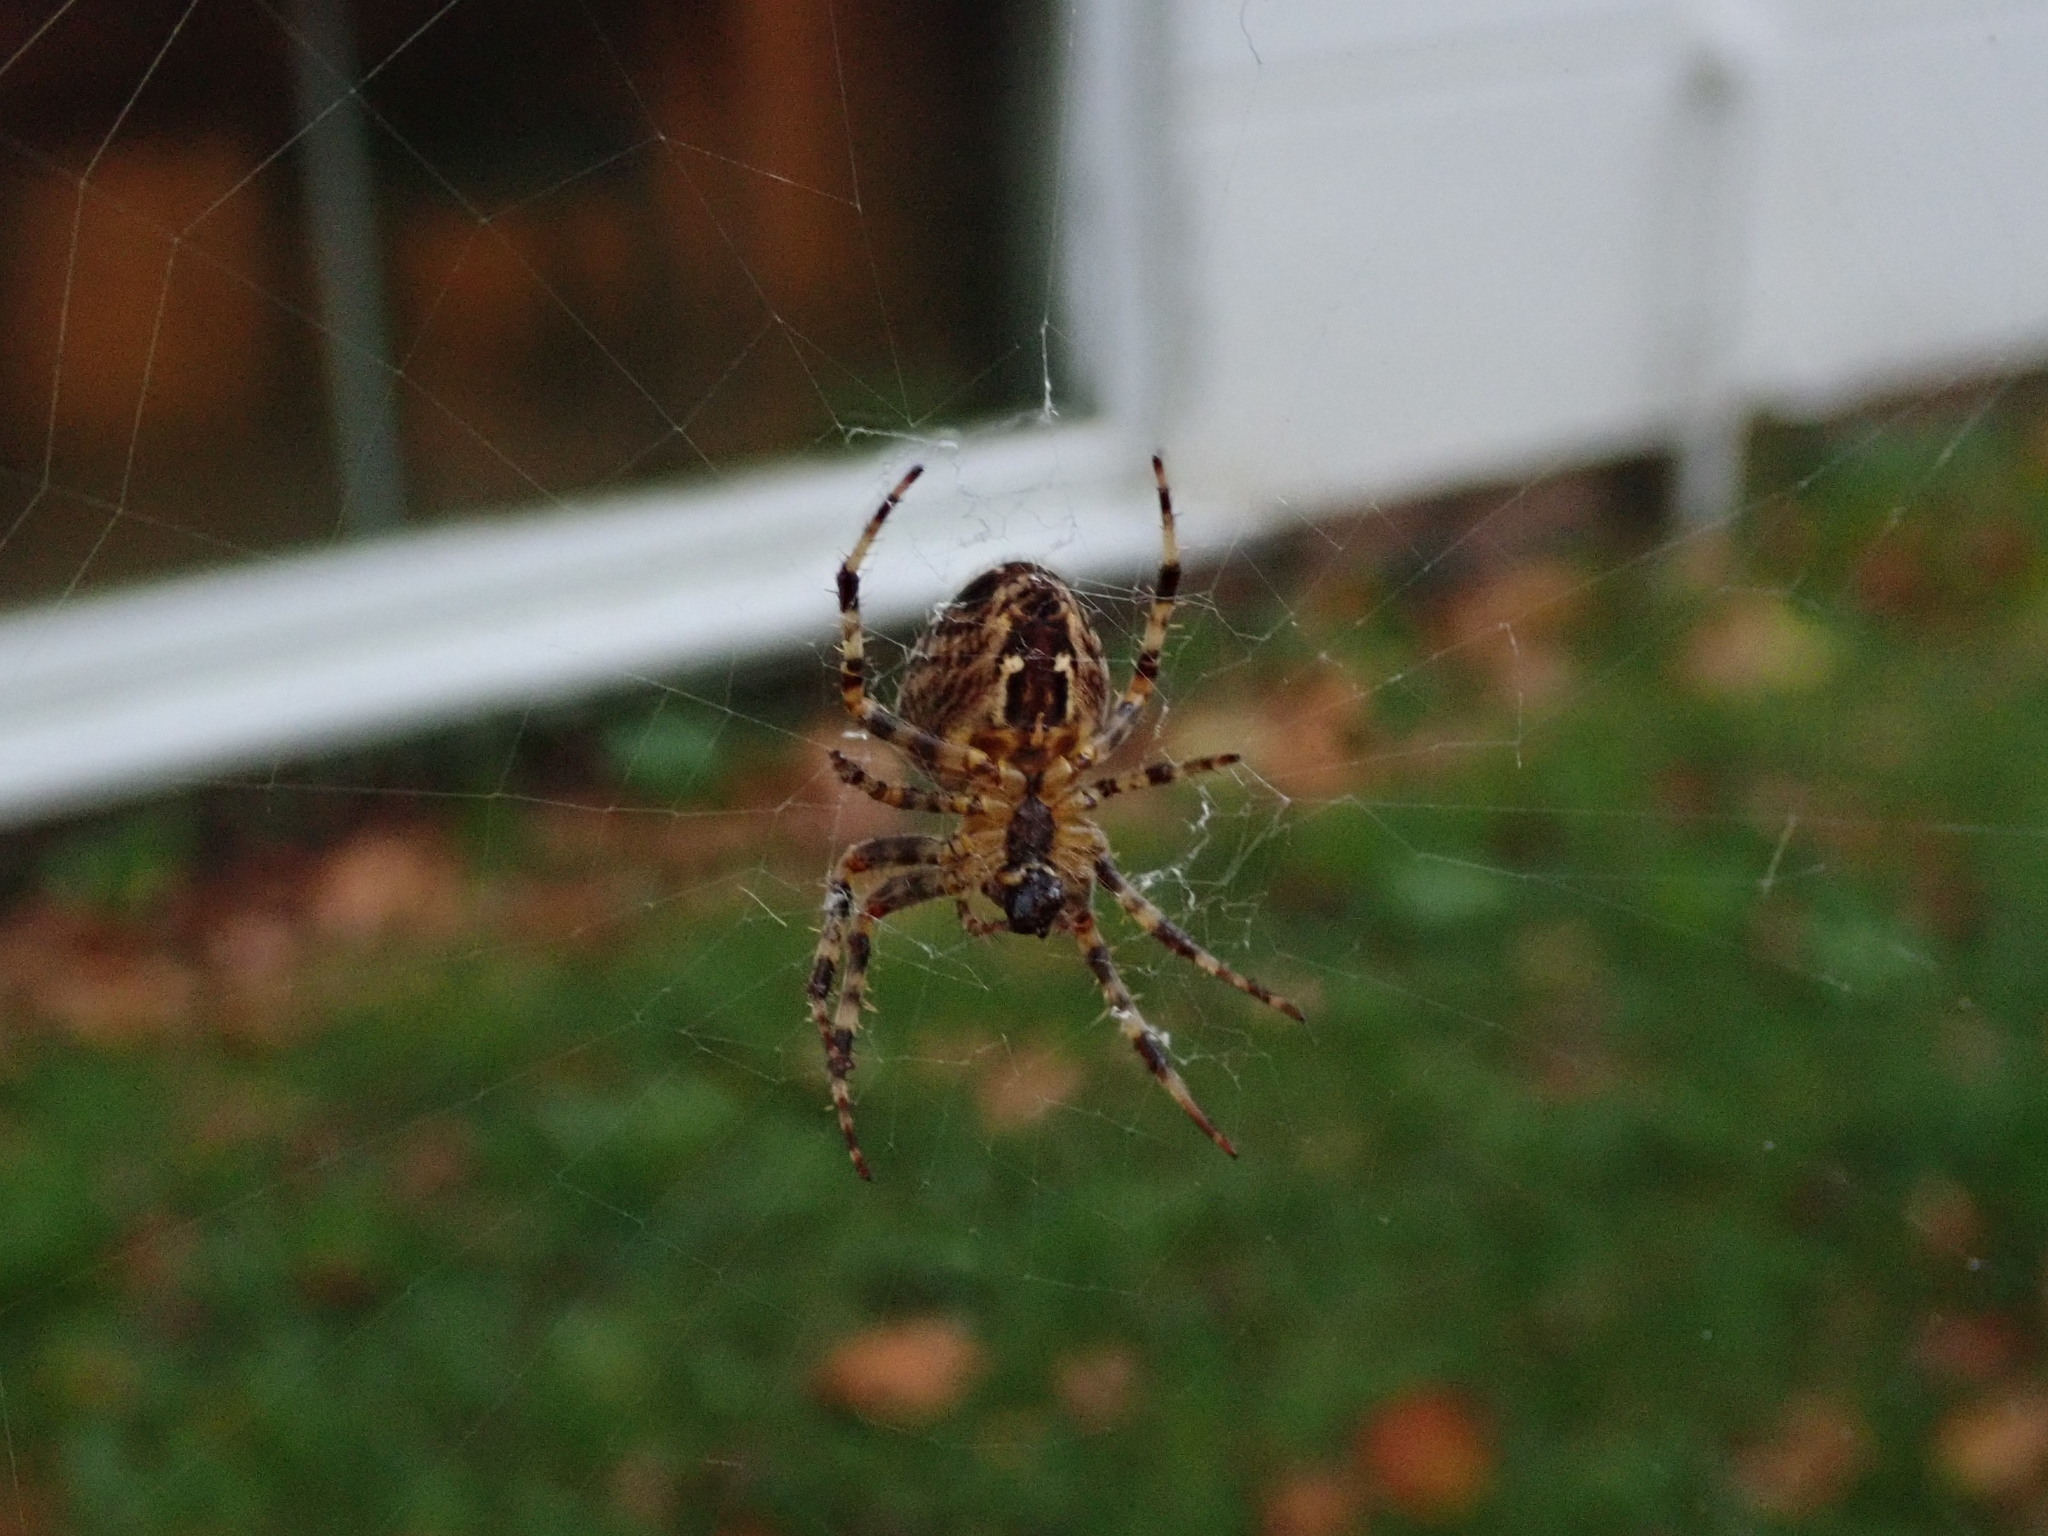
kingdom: Animalia
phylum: Arthropoda
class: Arachnida
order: Araneae
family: Araneidae
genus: Araneus
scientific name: Araneus diadematus
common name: Cross orbweaver
